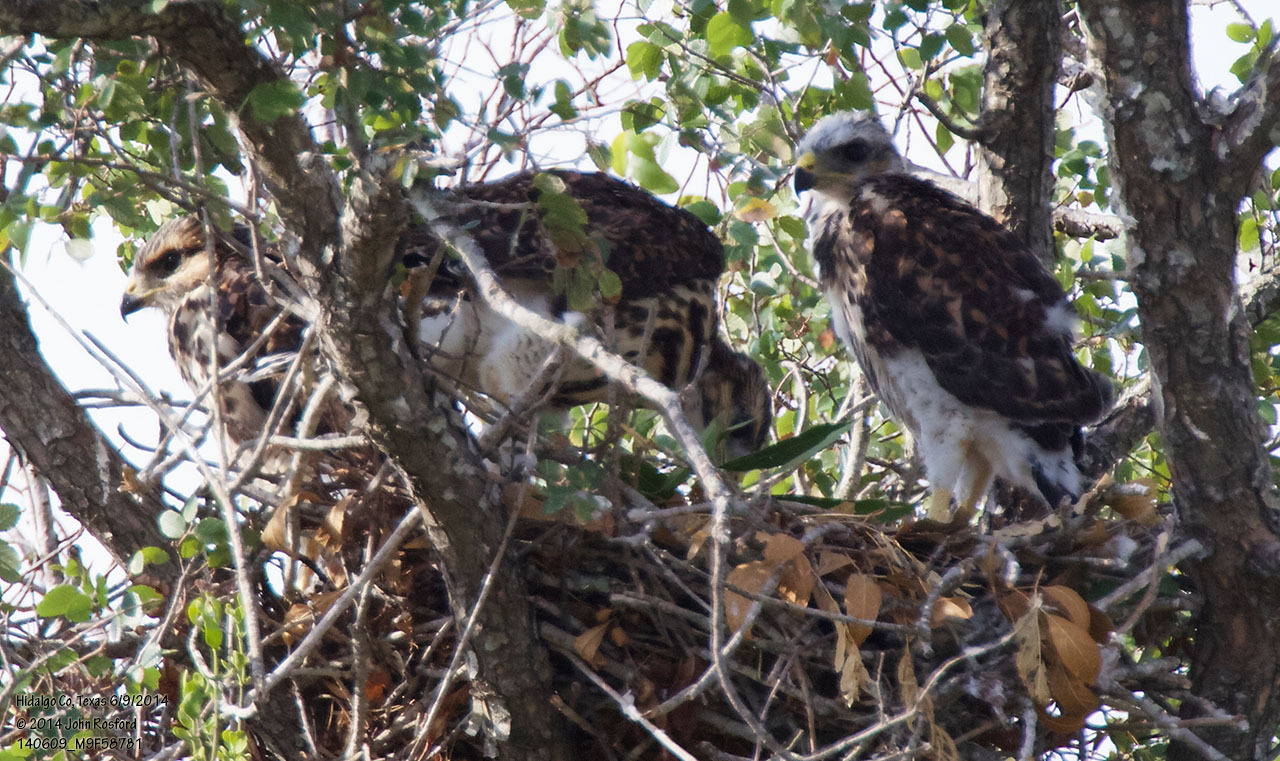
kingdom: Animalia
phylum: Chordata
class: Aves
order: Accipitriformes
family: Accipitridae
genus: Buteo
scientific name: Buteo nitidus
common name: Grey-lined hawk
